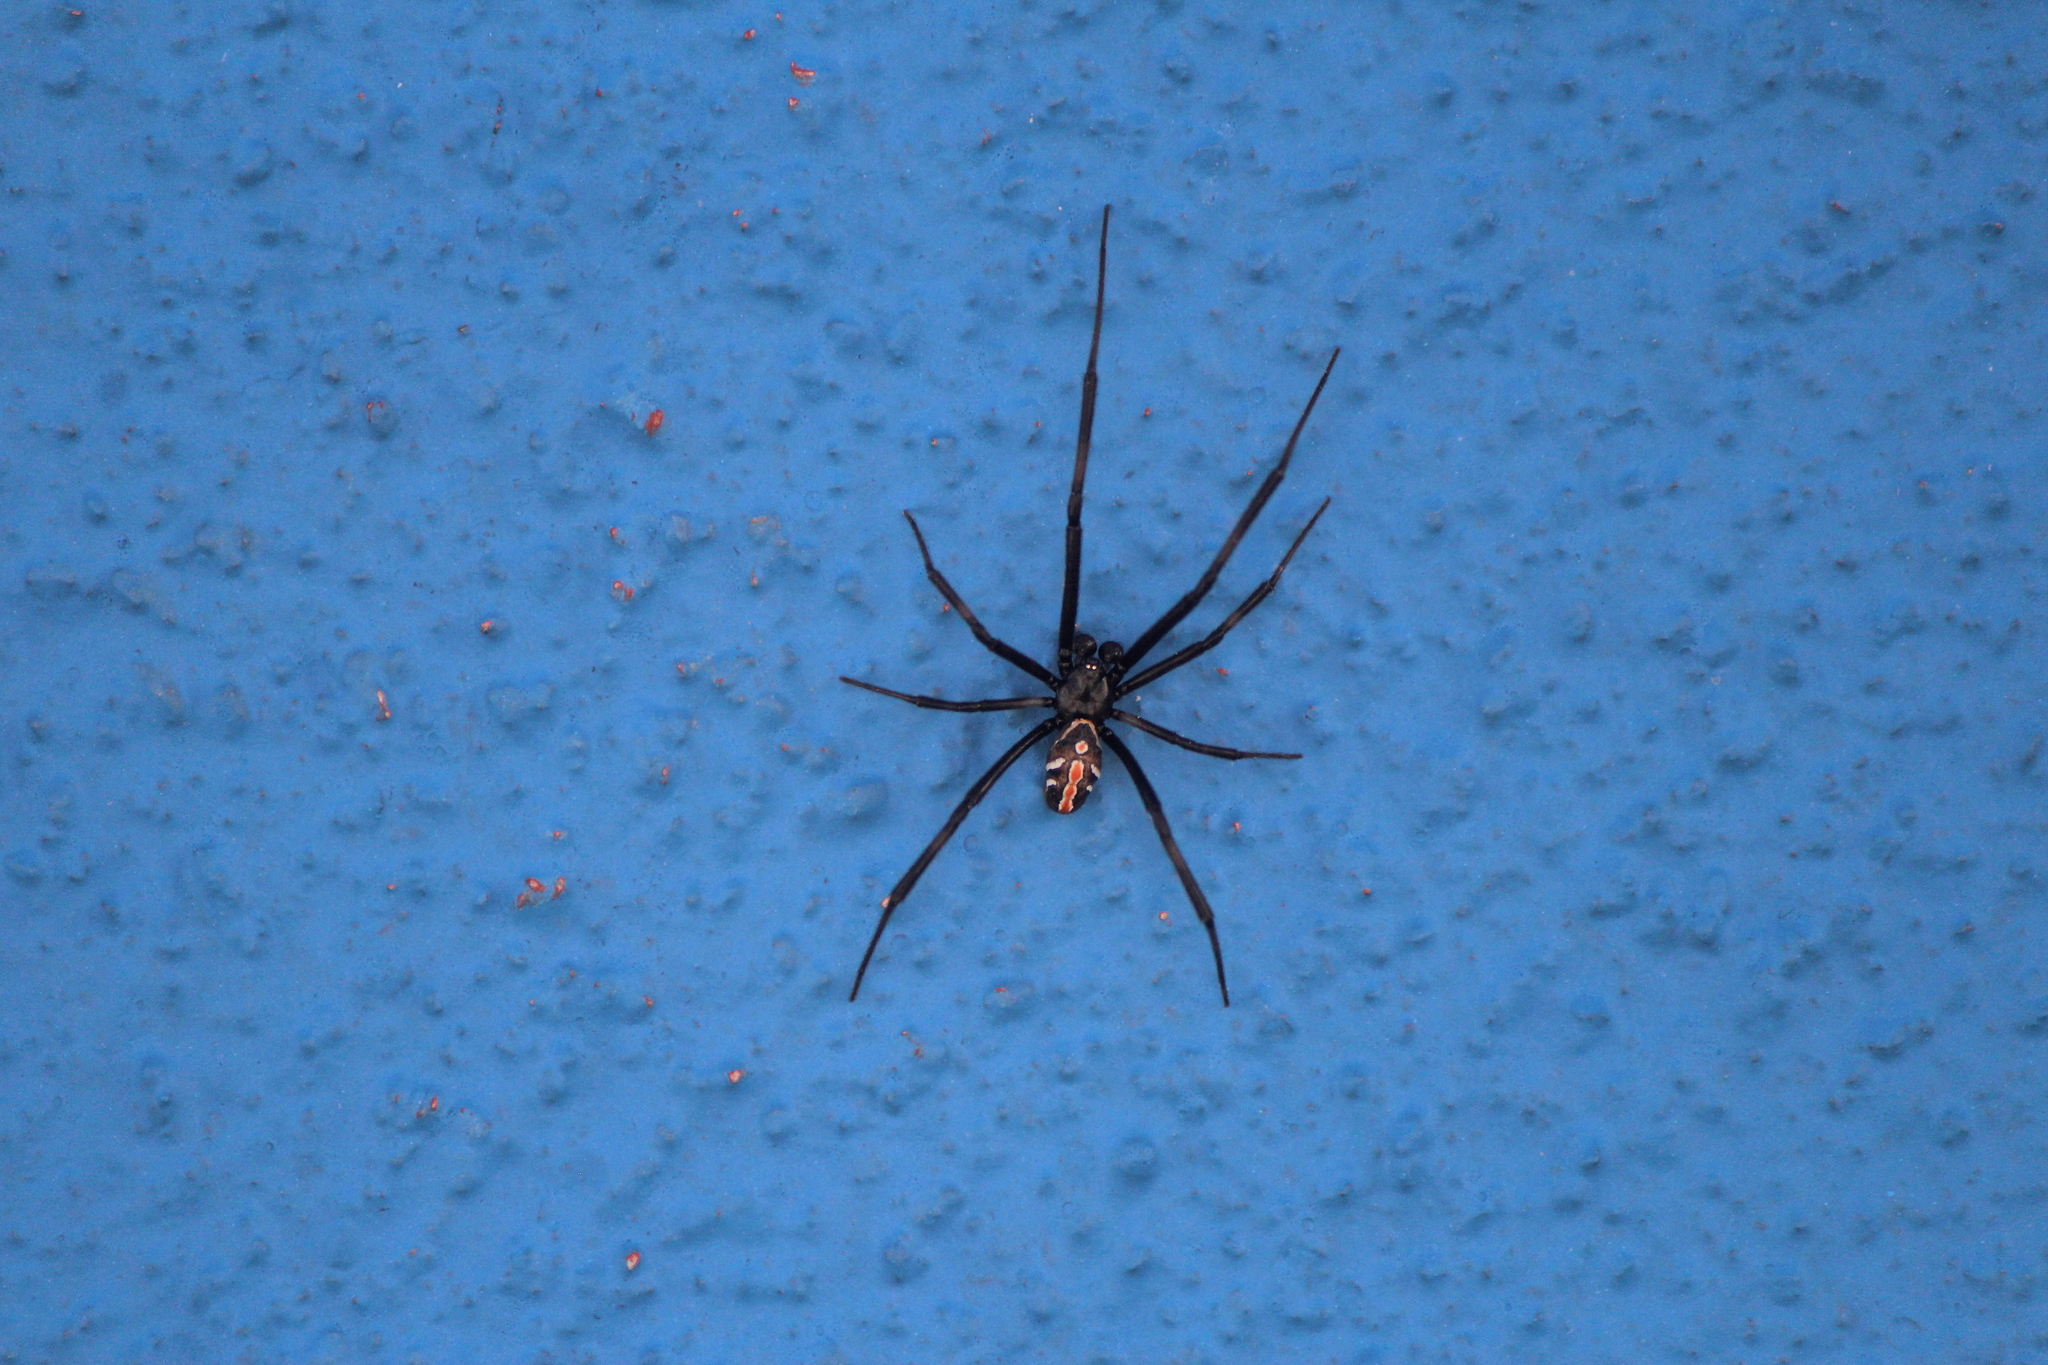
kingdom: Animalia
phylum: Arthropoda
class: Arachnida
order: Araneae
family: Theridiidae
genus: Latrodectus
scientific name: Latrodectus mactans
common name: Cobweb spiders
